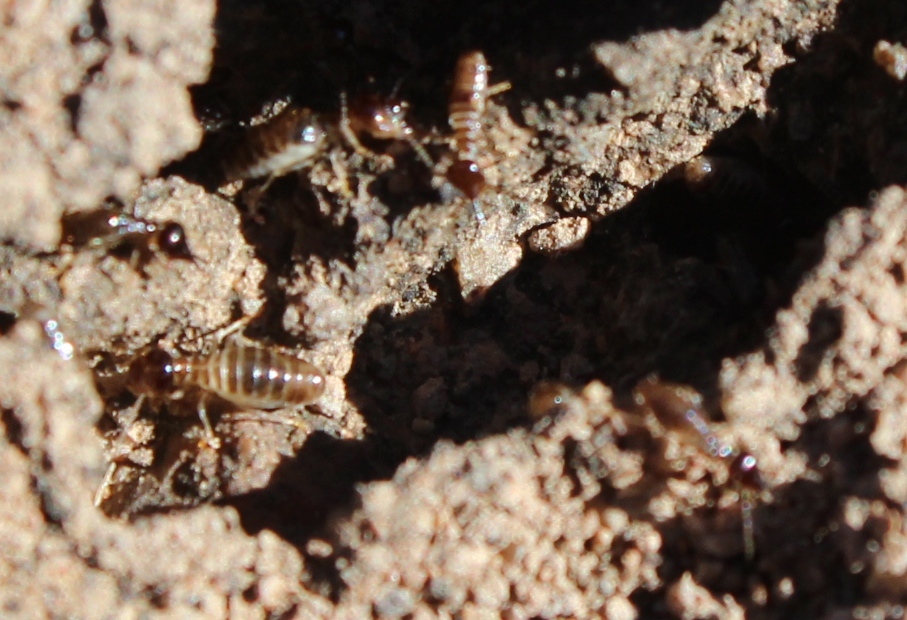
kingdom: Animalia
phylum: Arthropoda
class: Insecta
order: Blattodea
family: Termitidae
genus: Fulleritermes
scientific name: Fulleritermes mallyi
